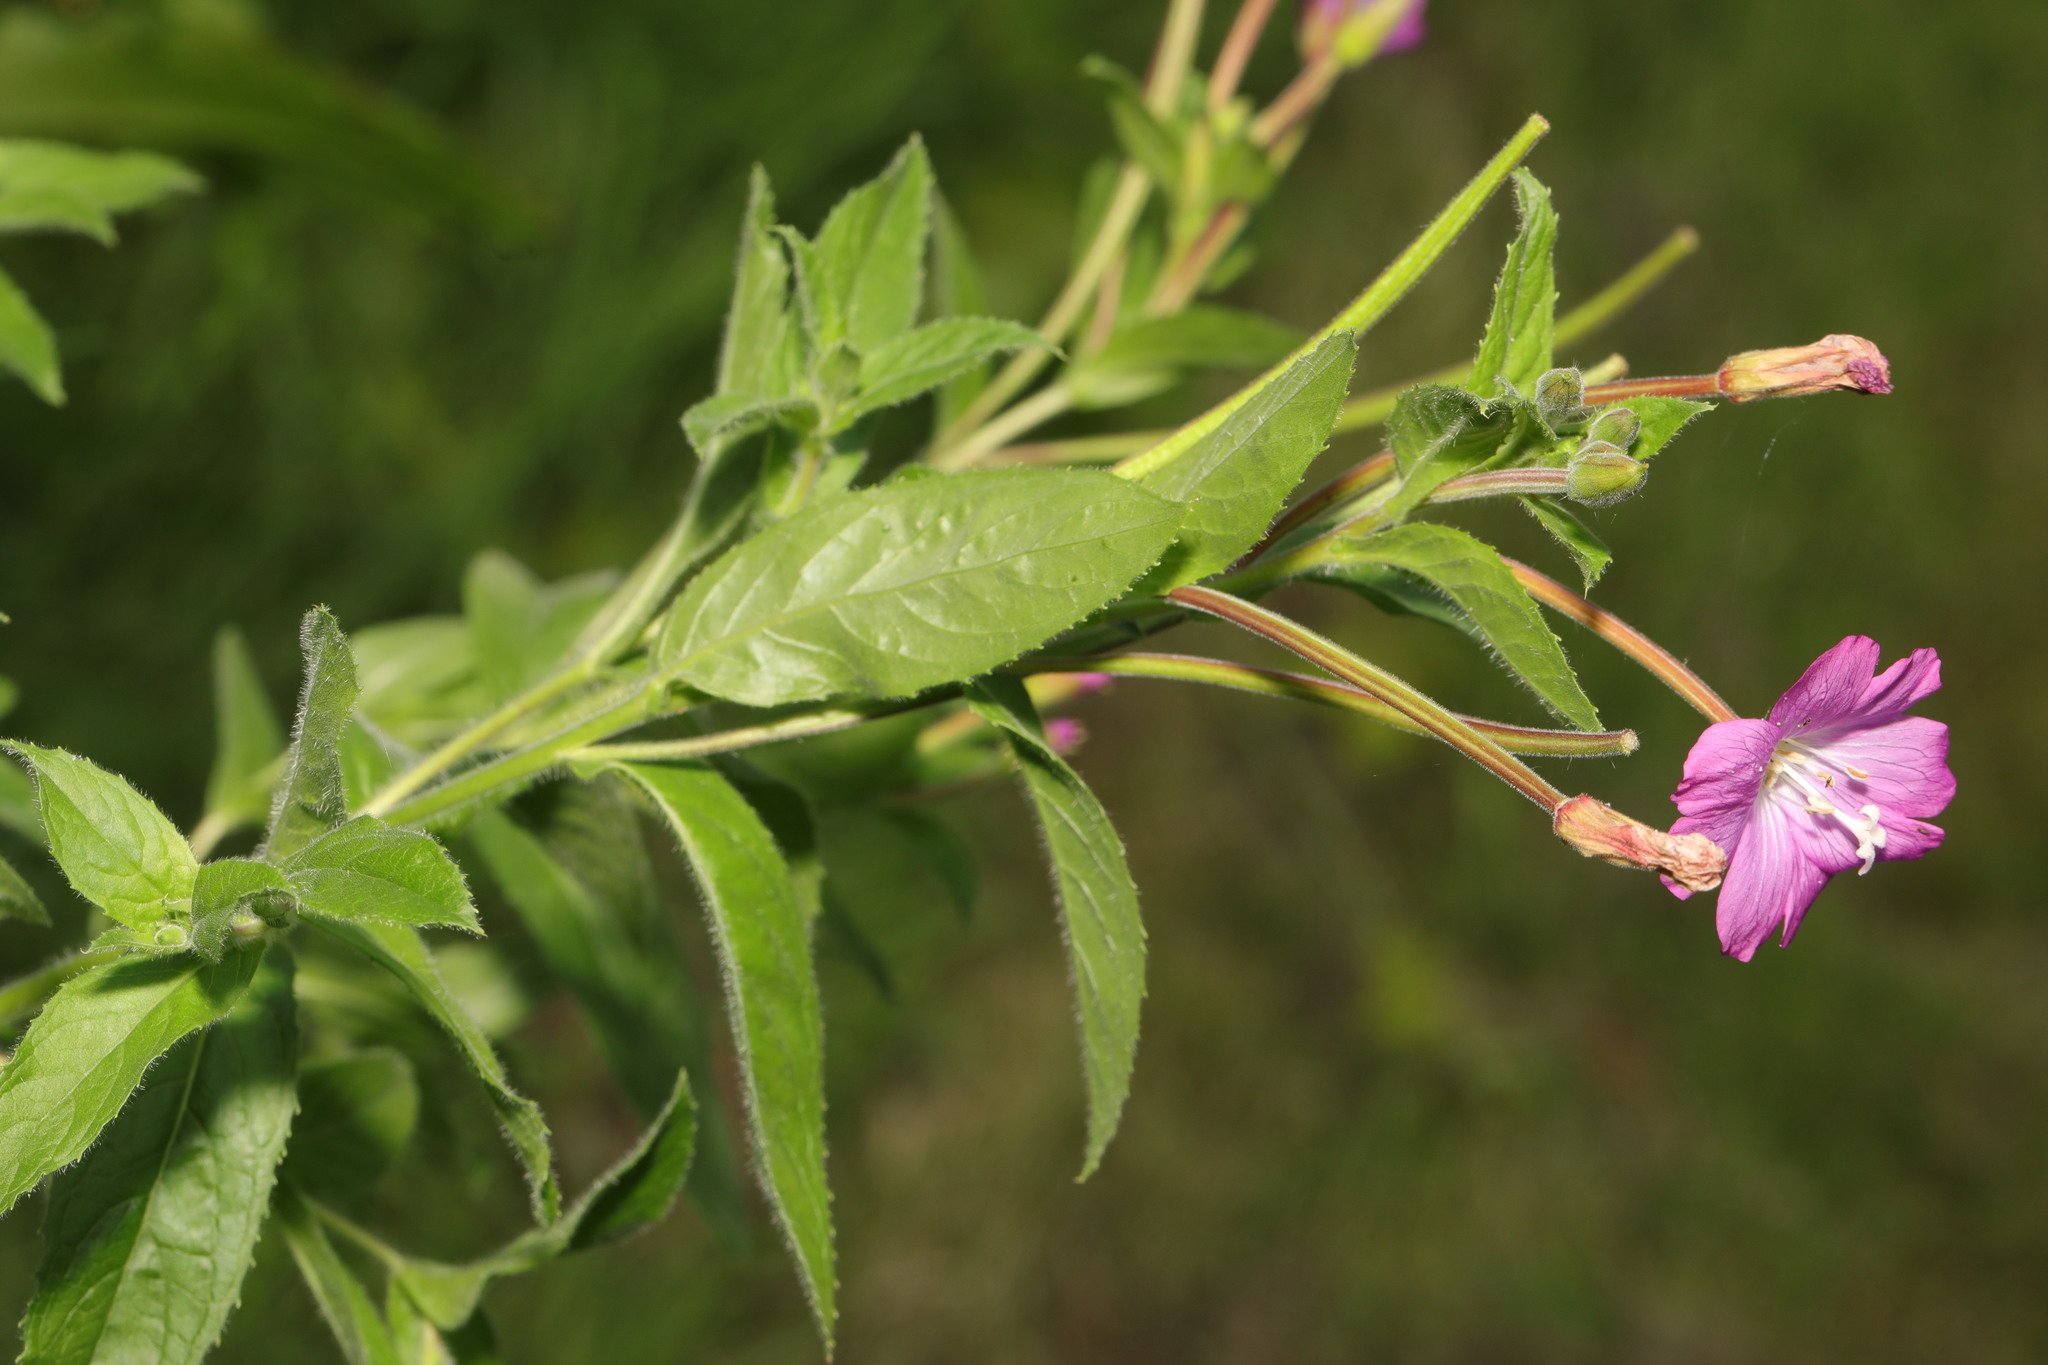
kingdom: Plantae
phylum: Tracheophyta
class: Magnoliopsida
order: Myrtales
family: Onagraceae
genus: Epilobium
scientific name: Epilobium hirsutum
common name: Great willowherb
